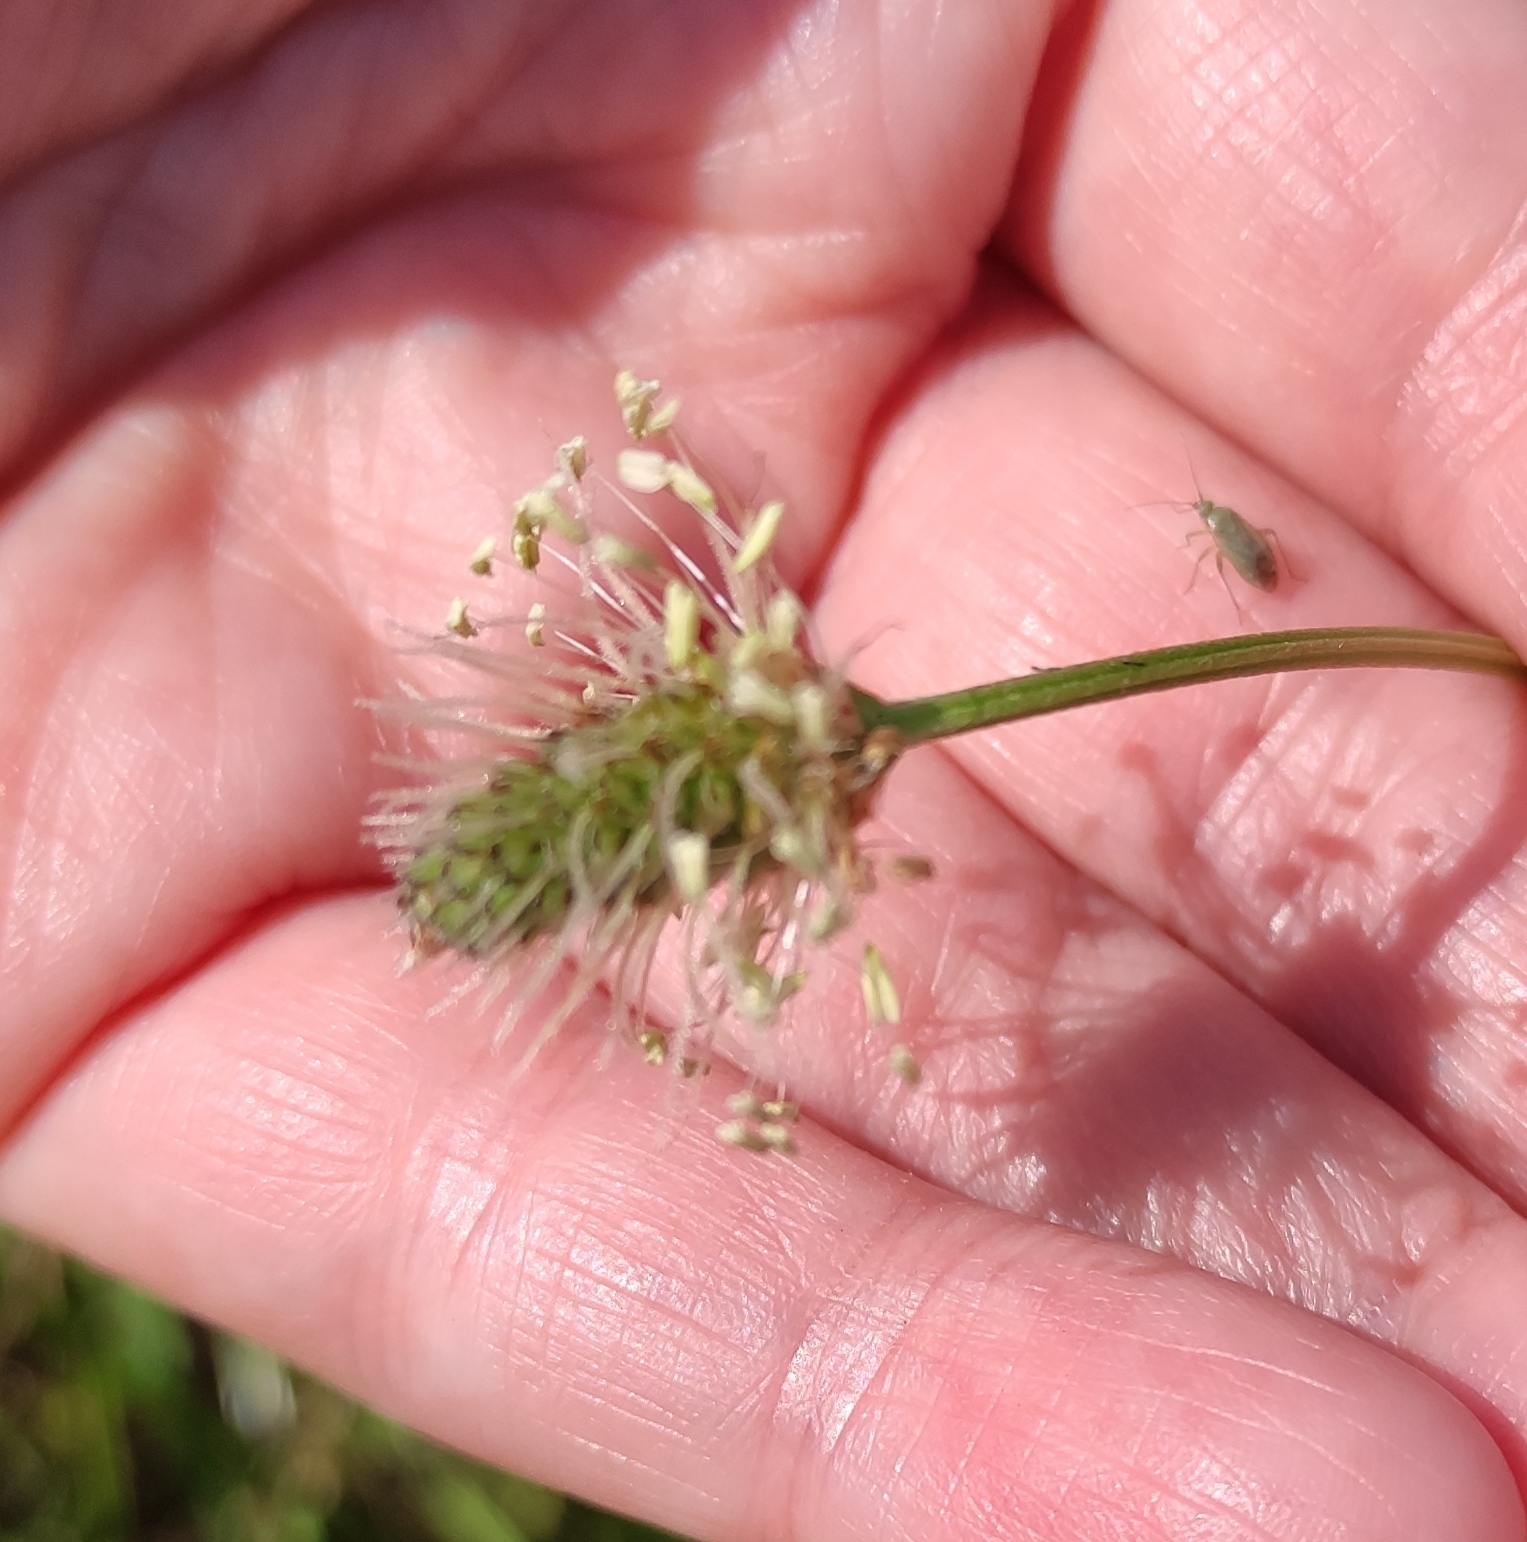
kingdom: Plantae
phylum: Tracheophyta
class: Magnoliopsida
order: Lamiales
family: Plantaginaceae
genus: Plantago
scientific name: Plantago lanceolata
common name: Ribwort plantain
